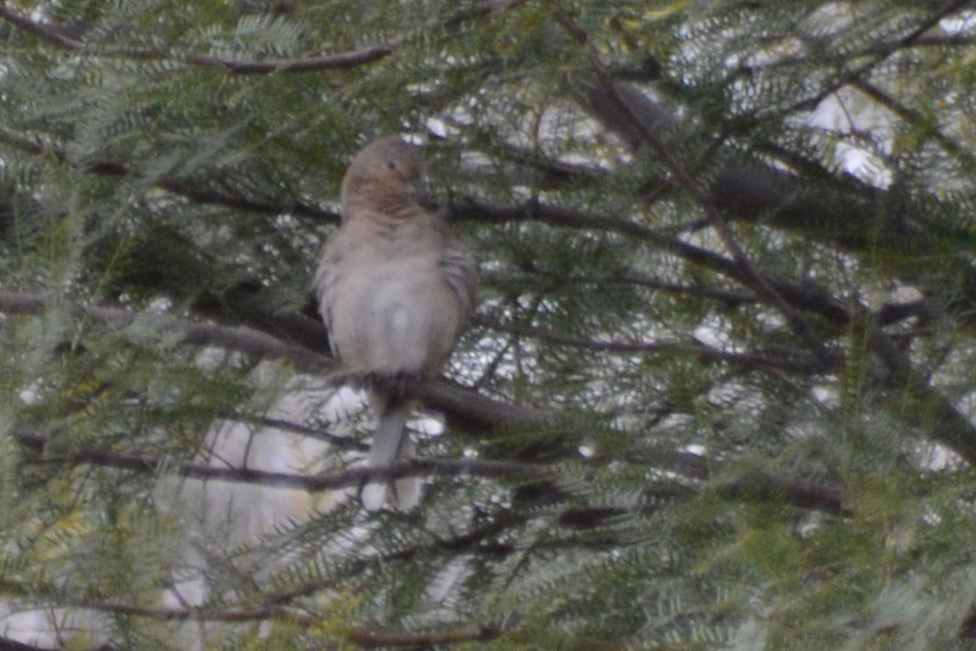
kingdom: Animalia
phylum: Chordata
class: Aves
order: Columbiformes
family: Columbidae
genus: Columbina
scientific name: Columbina picui
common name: Picui ground dove
